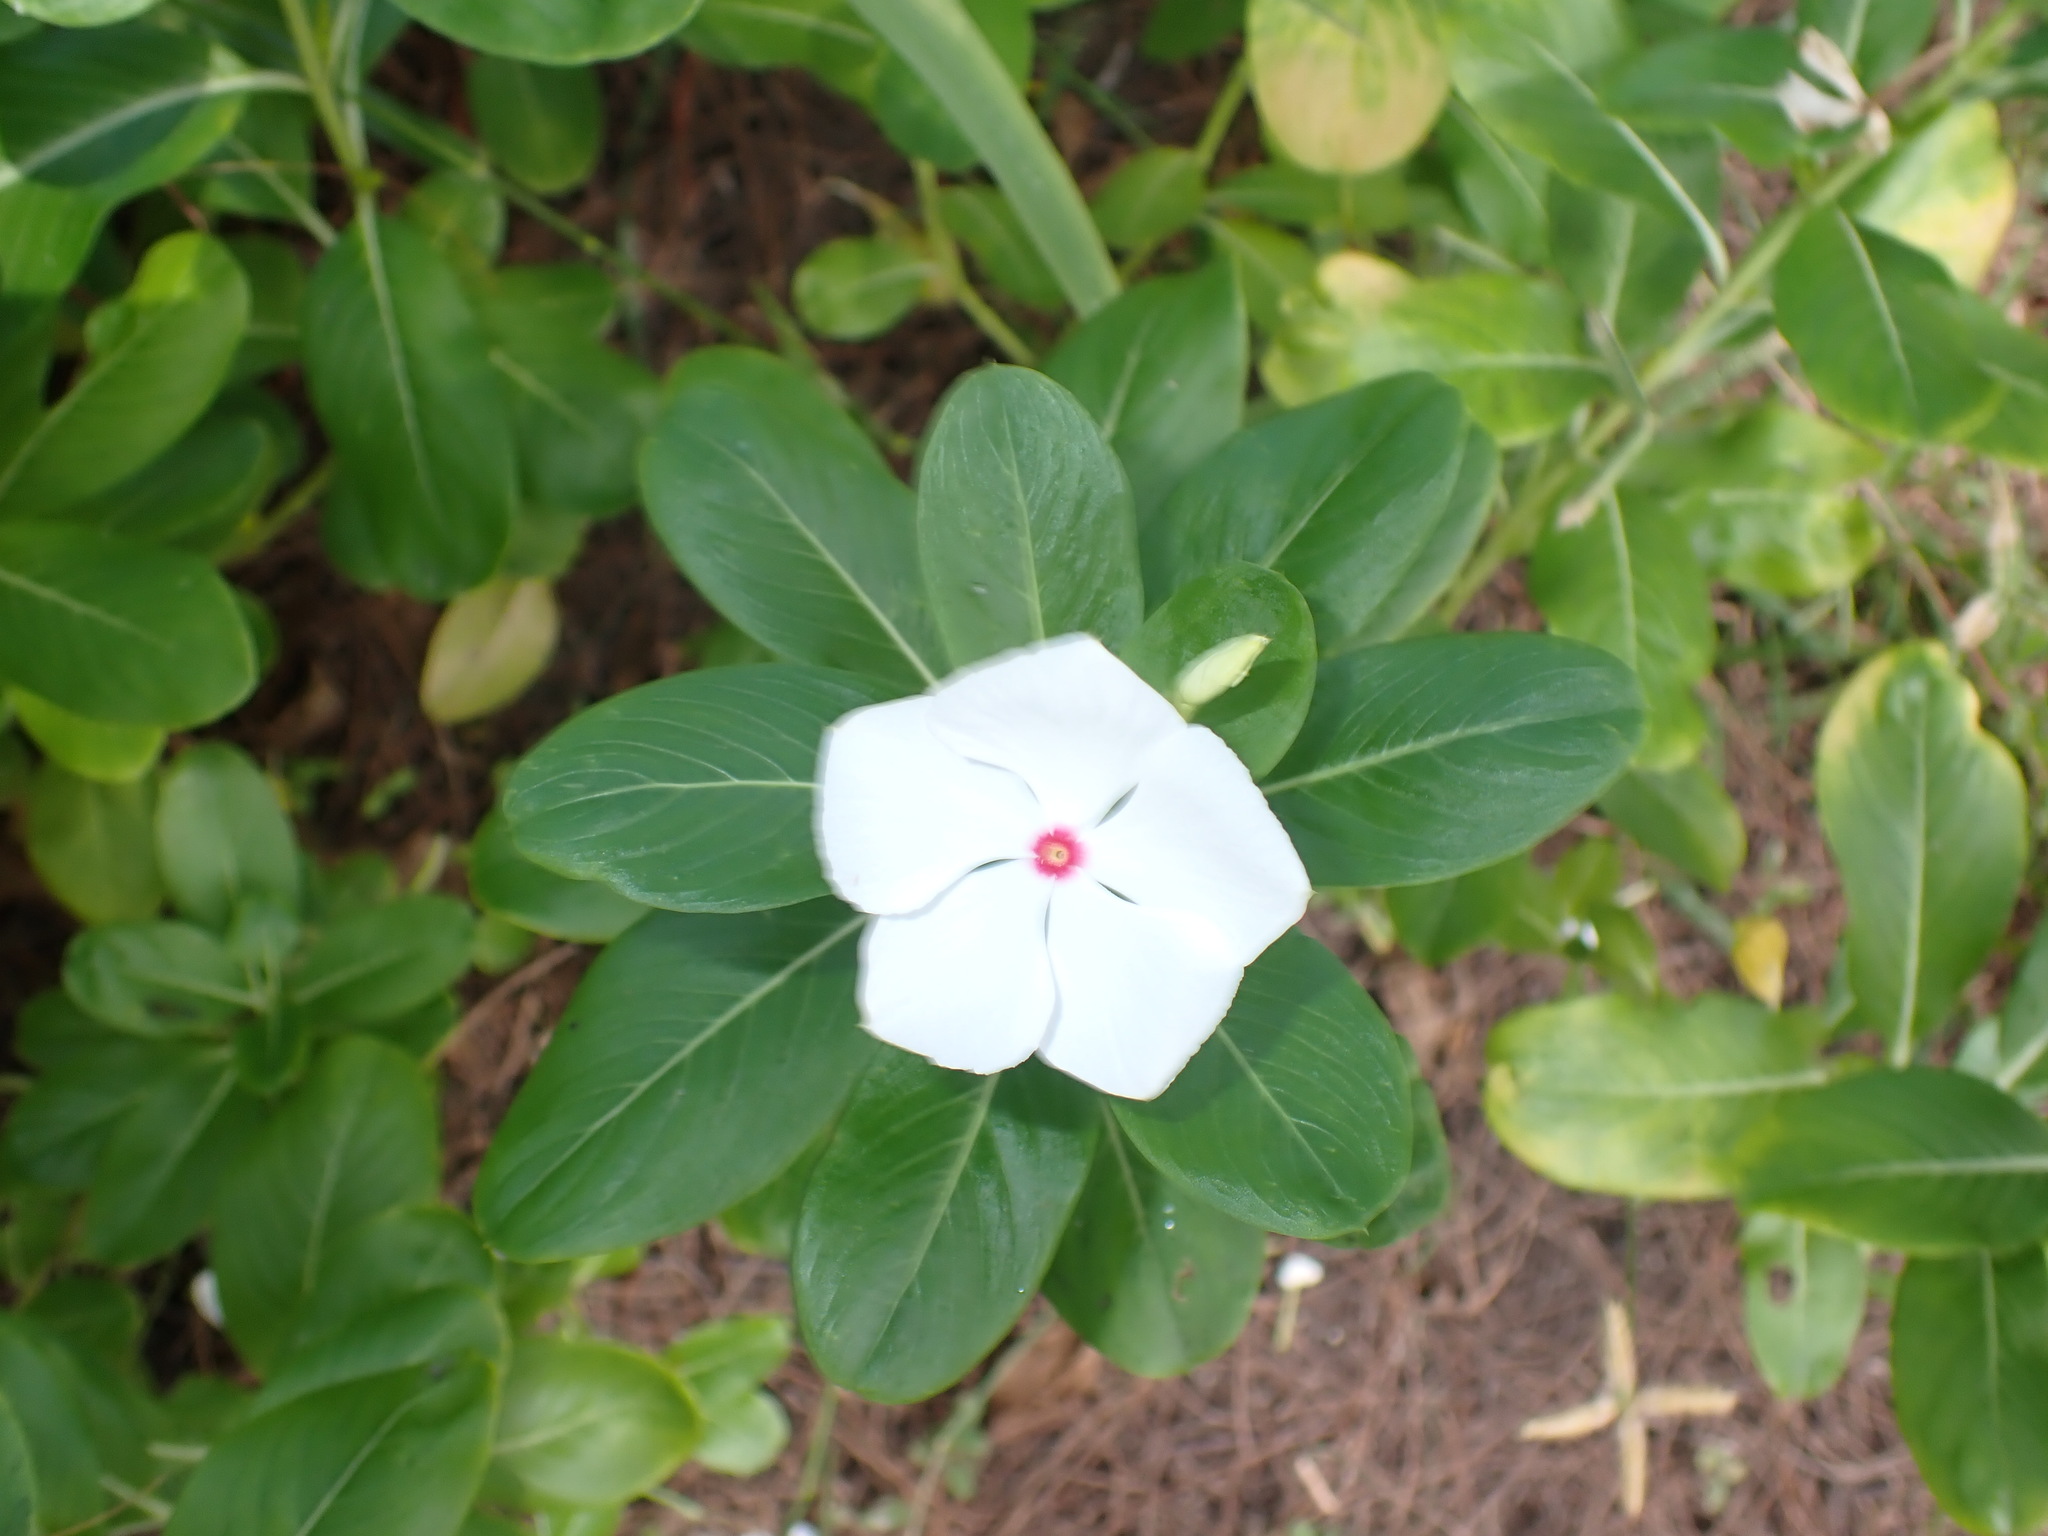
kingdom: Plantae
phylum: Tracheophyta
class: Magnoliopsida
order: Gentianales
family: Apocynaceae
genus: Catharanthus
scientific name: Catharanthus roseus
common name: Madagascar periwinkle
